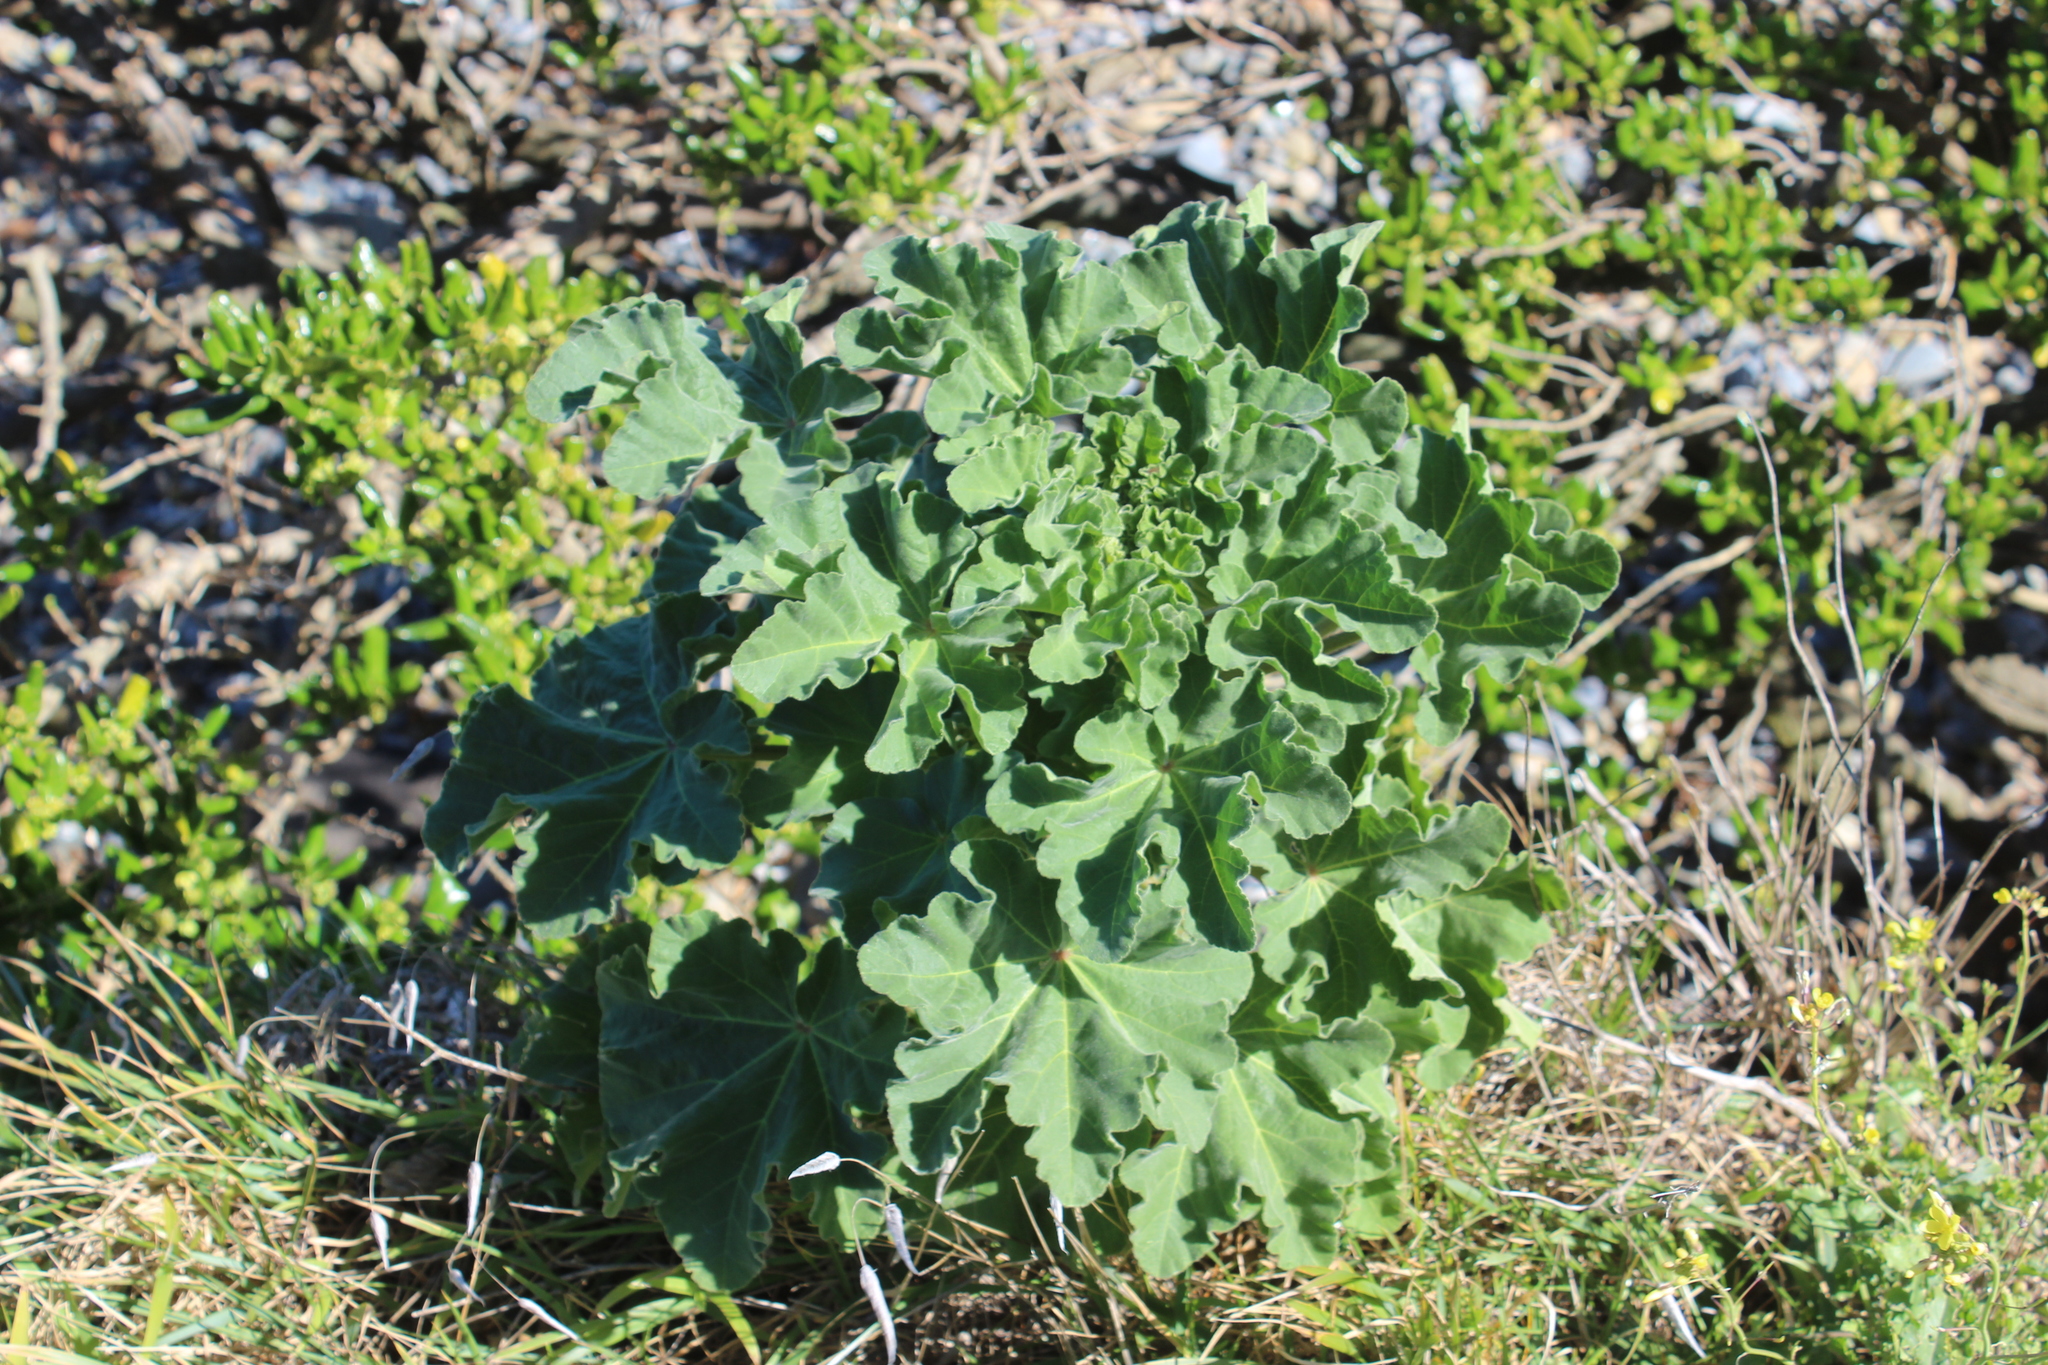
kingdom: Plantae
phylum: Tracheophyta
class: Magnoliopsida
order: Malvales
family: Malvaceae
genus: Malva
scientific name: Malva arborea
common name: Tree mallow
